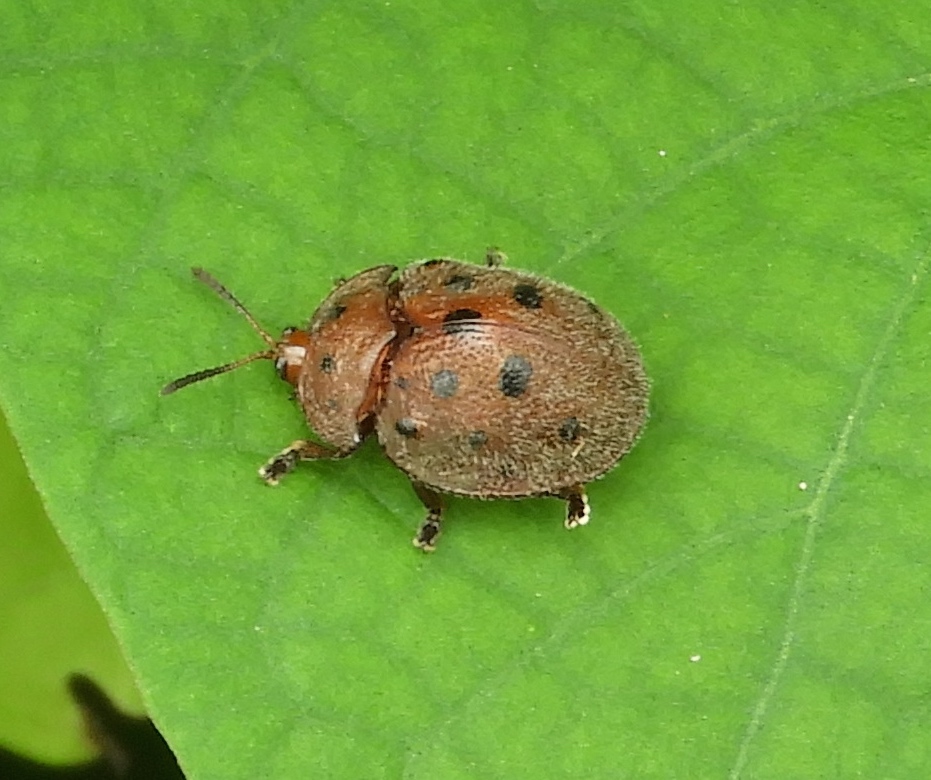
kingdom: Animalia
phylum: Arthropoda
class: Insecta
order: Coleoptera
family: Chrysomelidae
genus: Chelymorpha
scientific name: Chelymorpha
